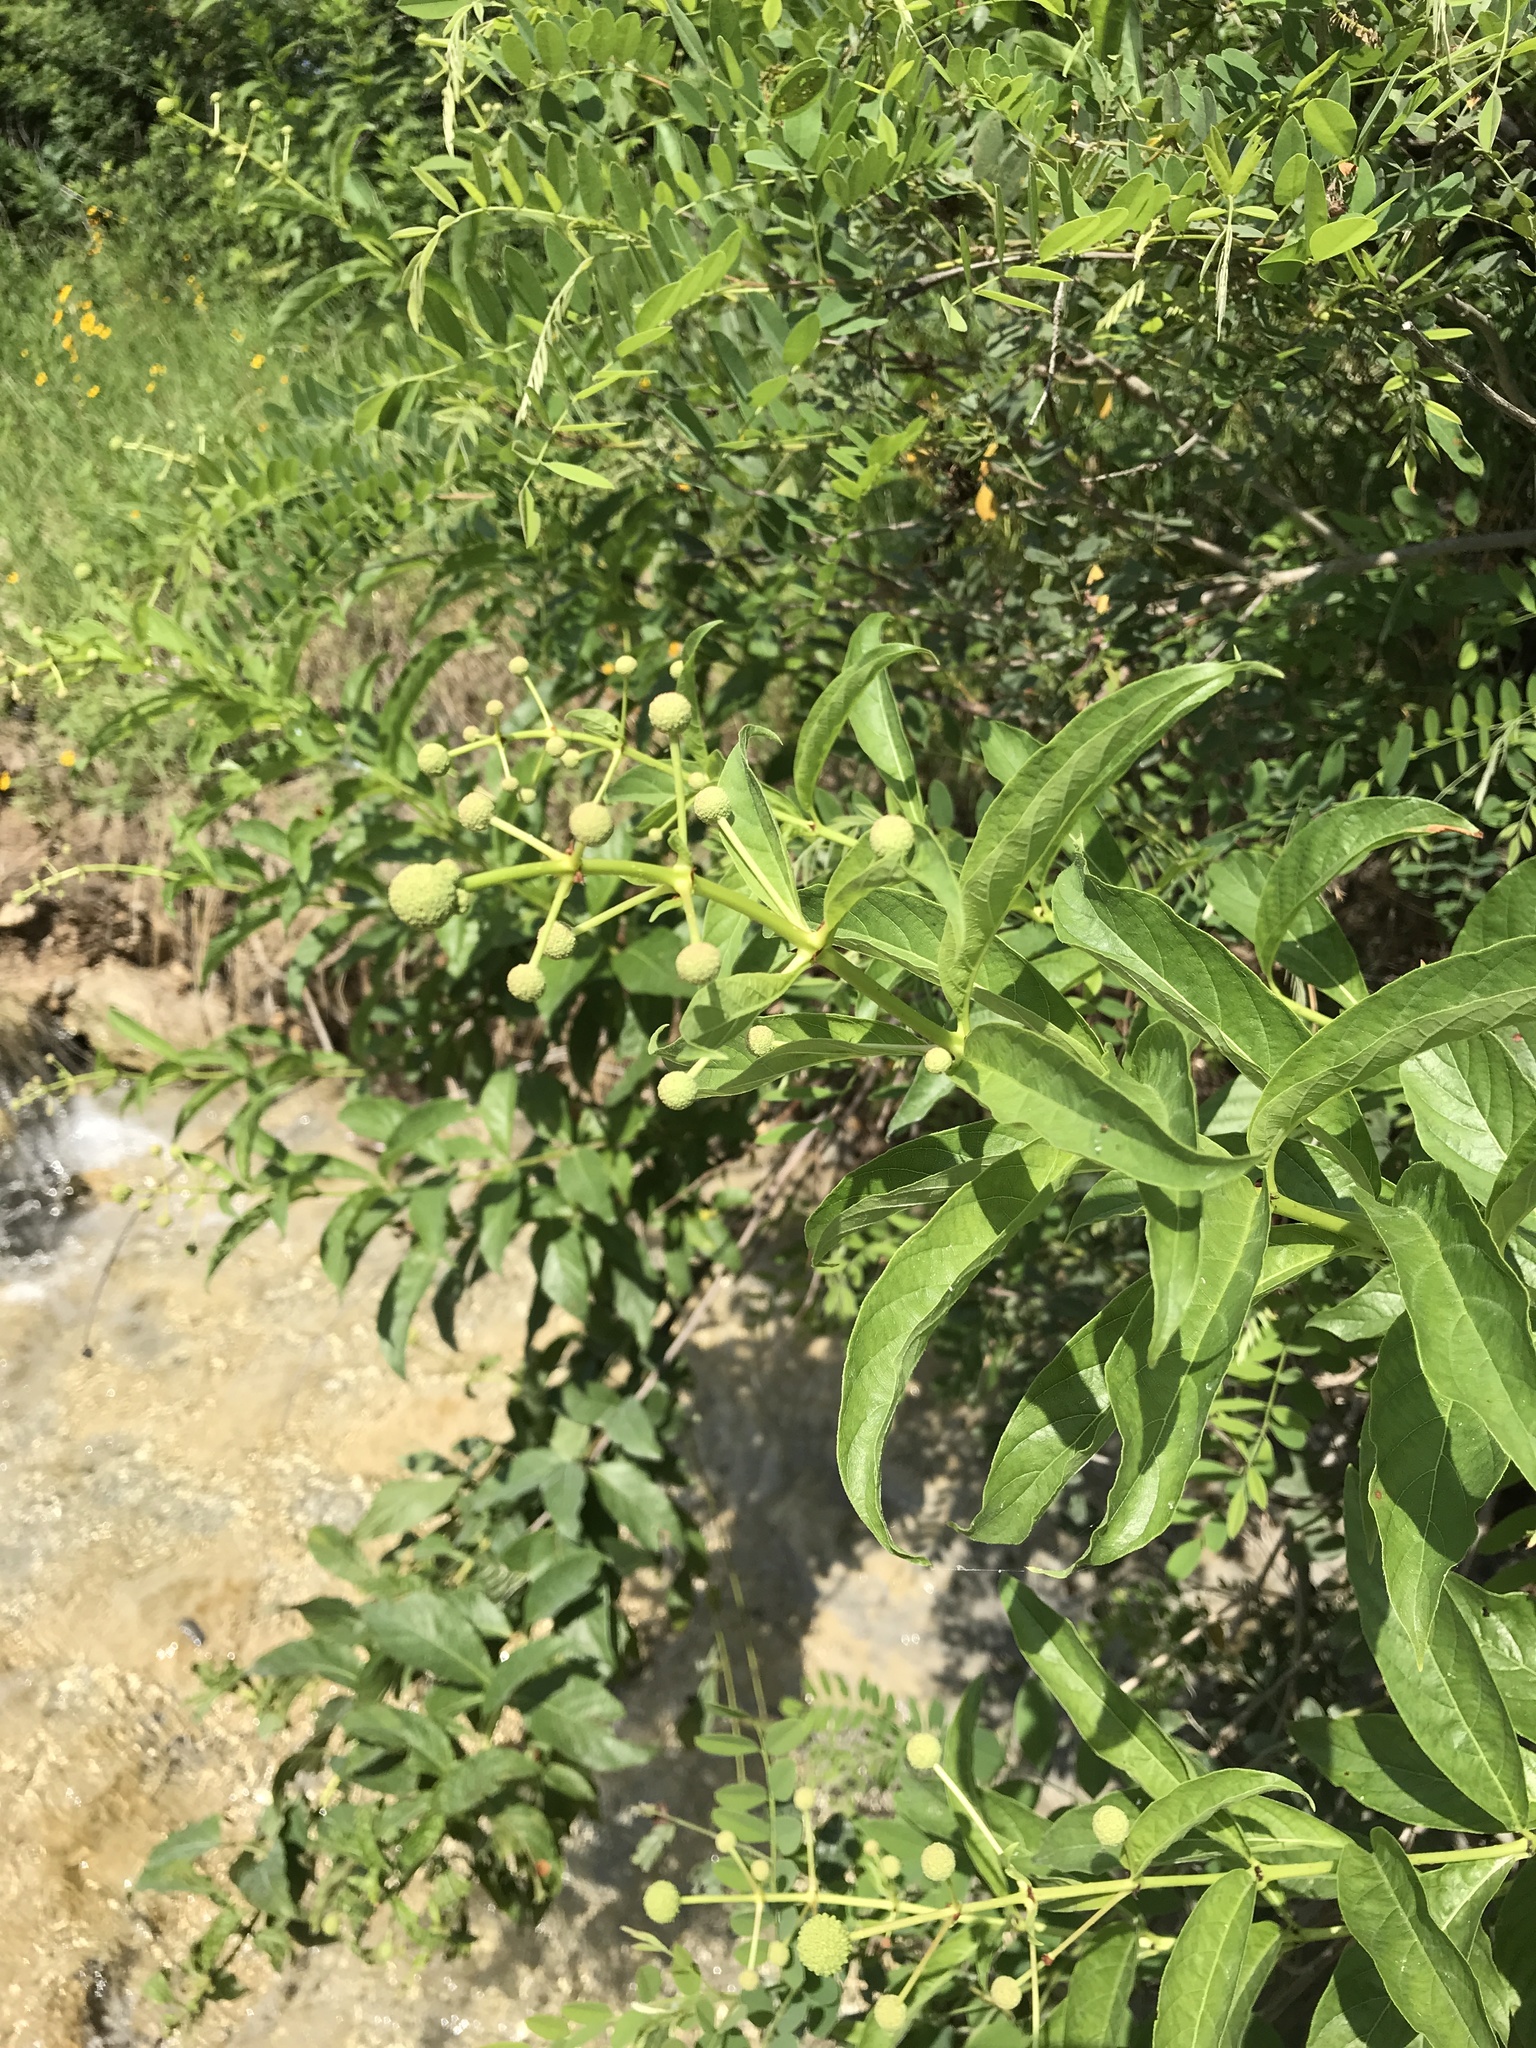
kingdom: Plantae
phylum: Tracheophyta
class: Magnoliopsida
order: Gentianales
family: Rubiaceae
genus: Cephalanthus
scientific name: Cephalanthus occidentalis
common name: Button-willow
